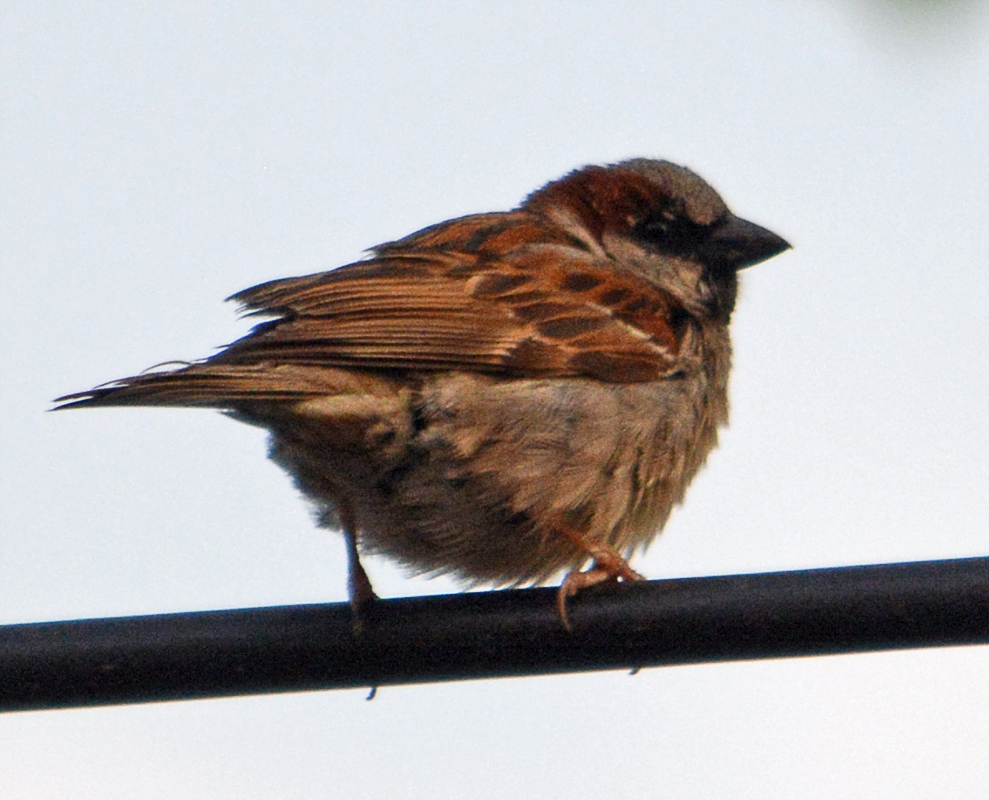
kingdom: Animalia
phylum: Chordata
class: Aves
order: Passeriformes
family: Passeridae
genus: Passer
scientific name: Passer domesticus
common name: House sparrow
